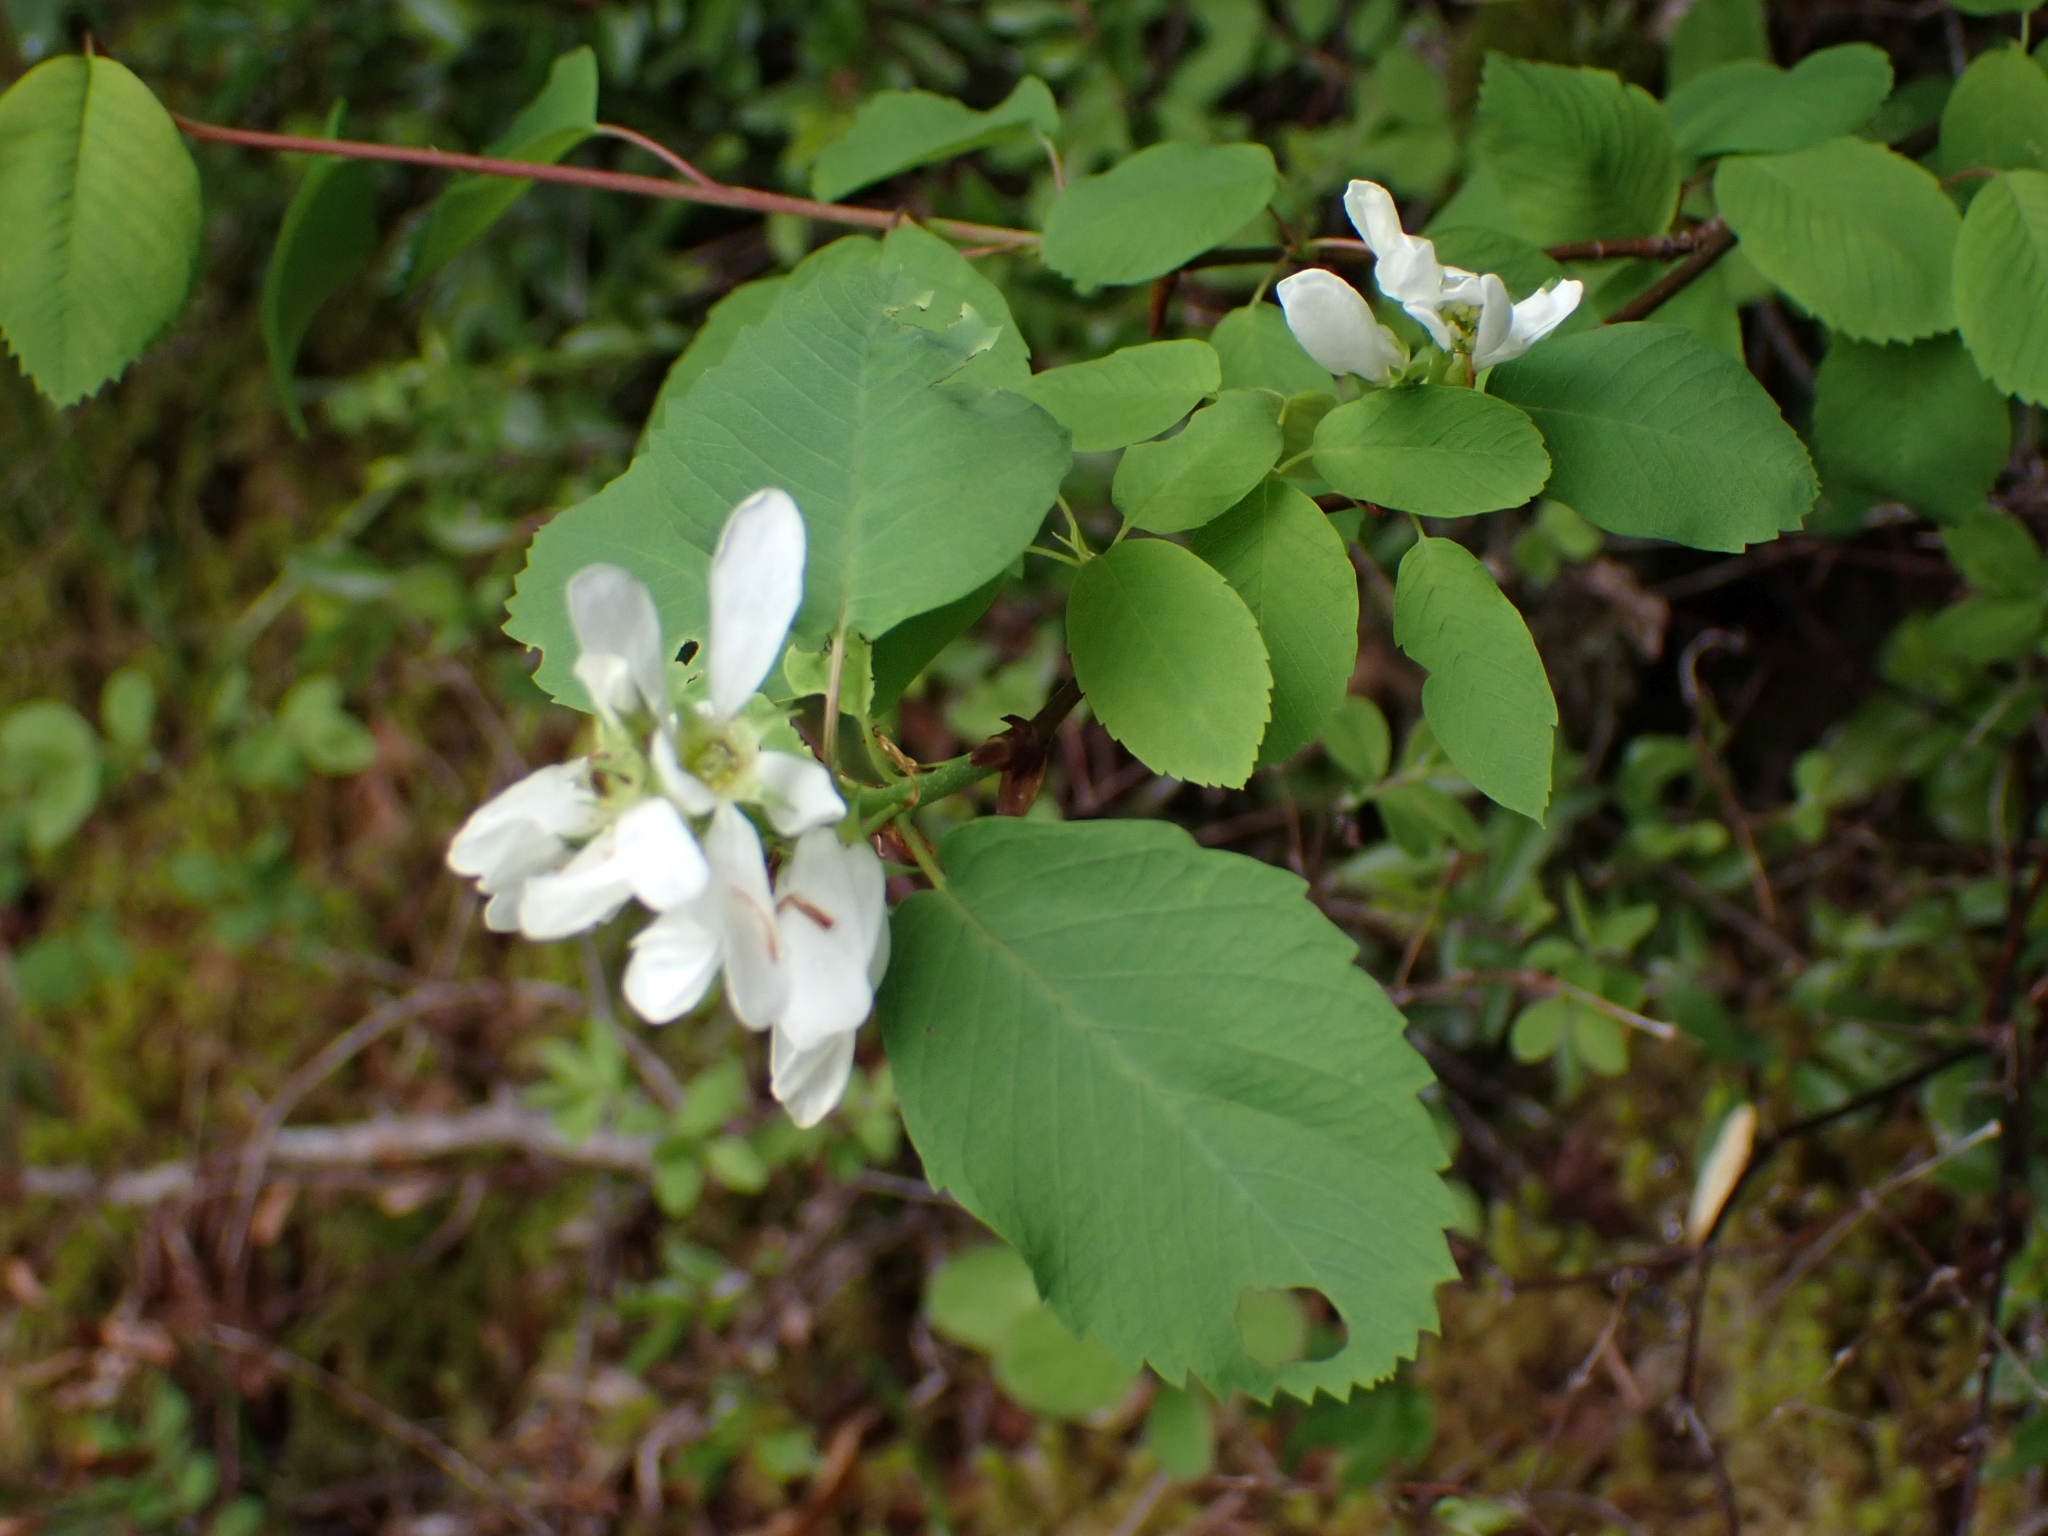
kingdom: Plantae
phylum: Tracheophyta
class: Magnoliopsida
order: Rosales
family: Rosaceae
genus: Amelanchier
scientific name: Amelanchier alnifolia
